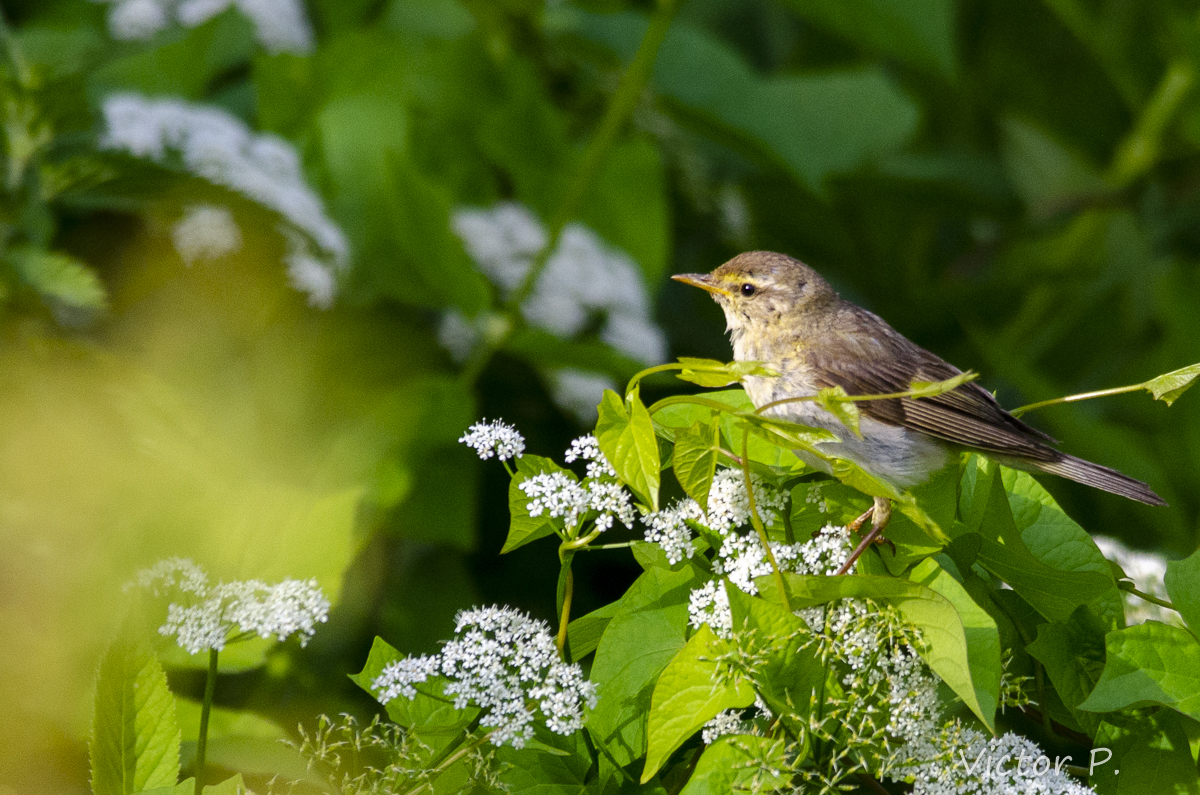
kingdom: Animalia
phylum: Chordata
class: Aves
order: Passeriformes
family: Phylloscopidae
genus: Phylloscopus
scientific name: Phylloscopus trochilus
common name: Willow warbler
